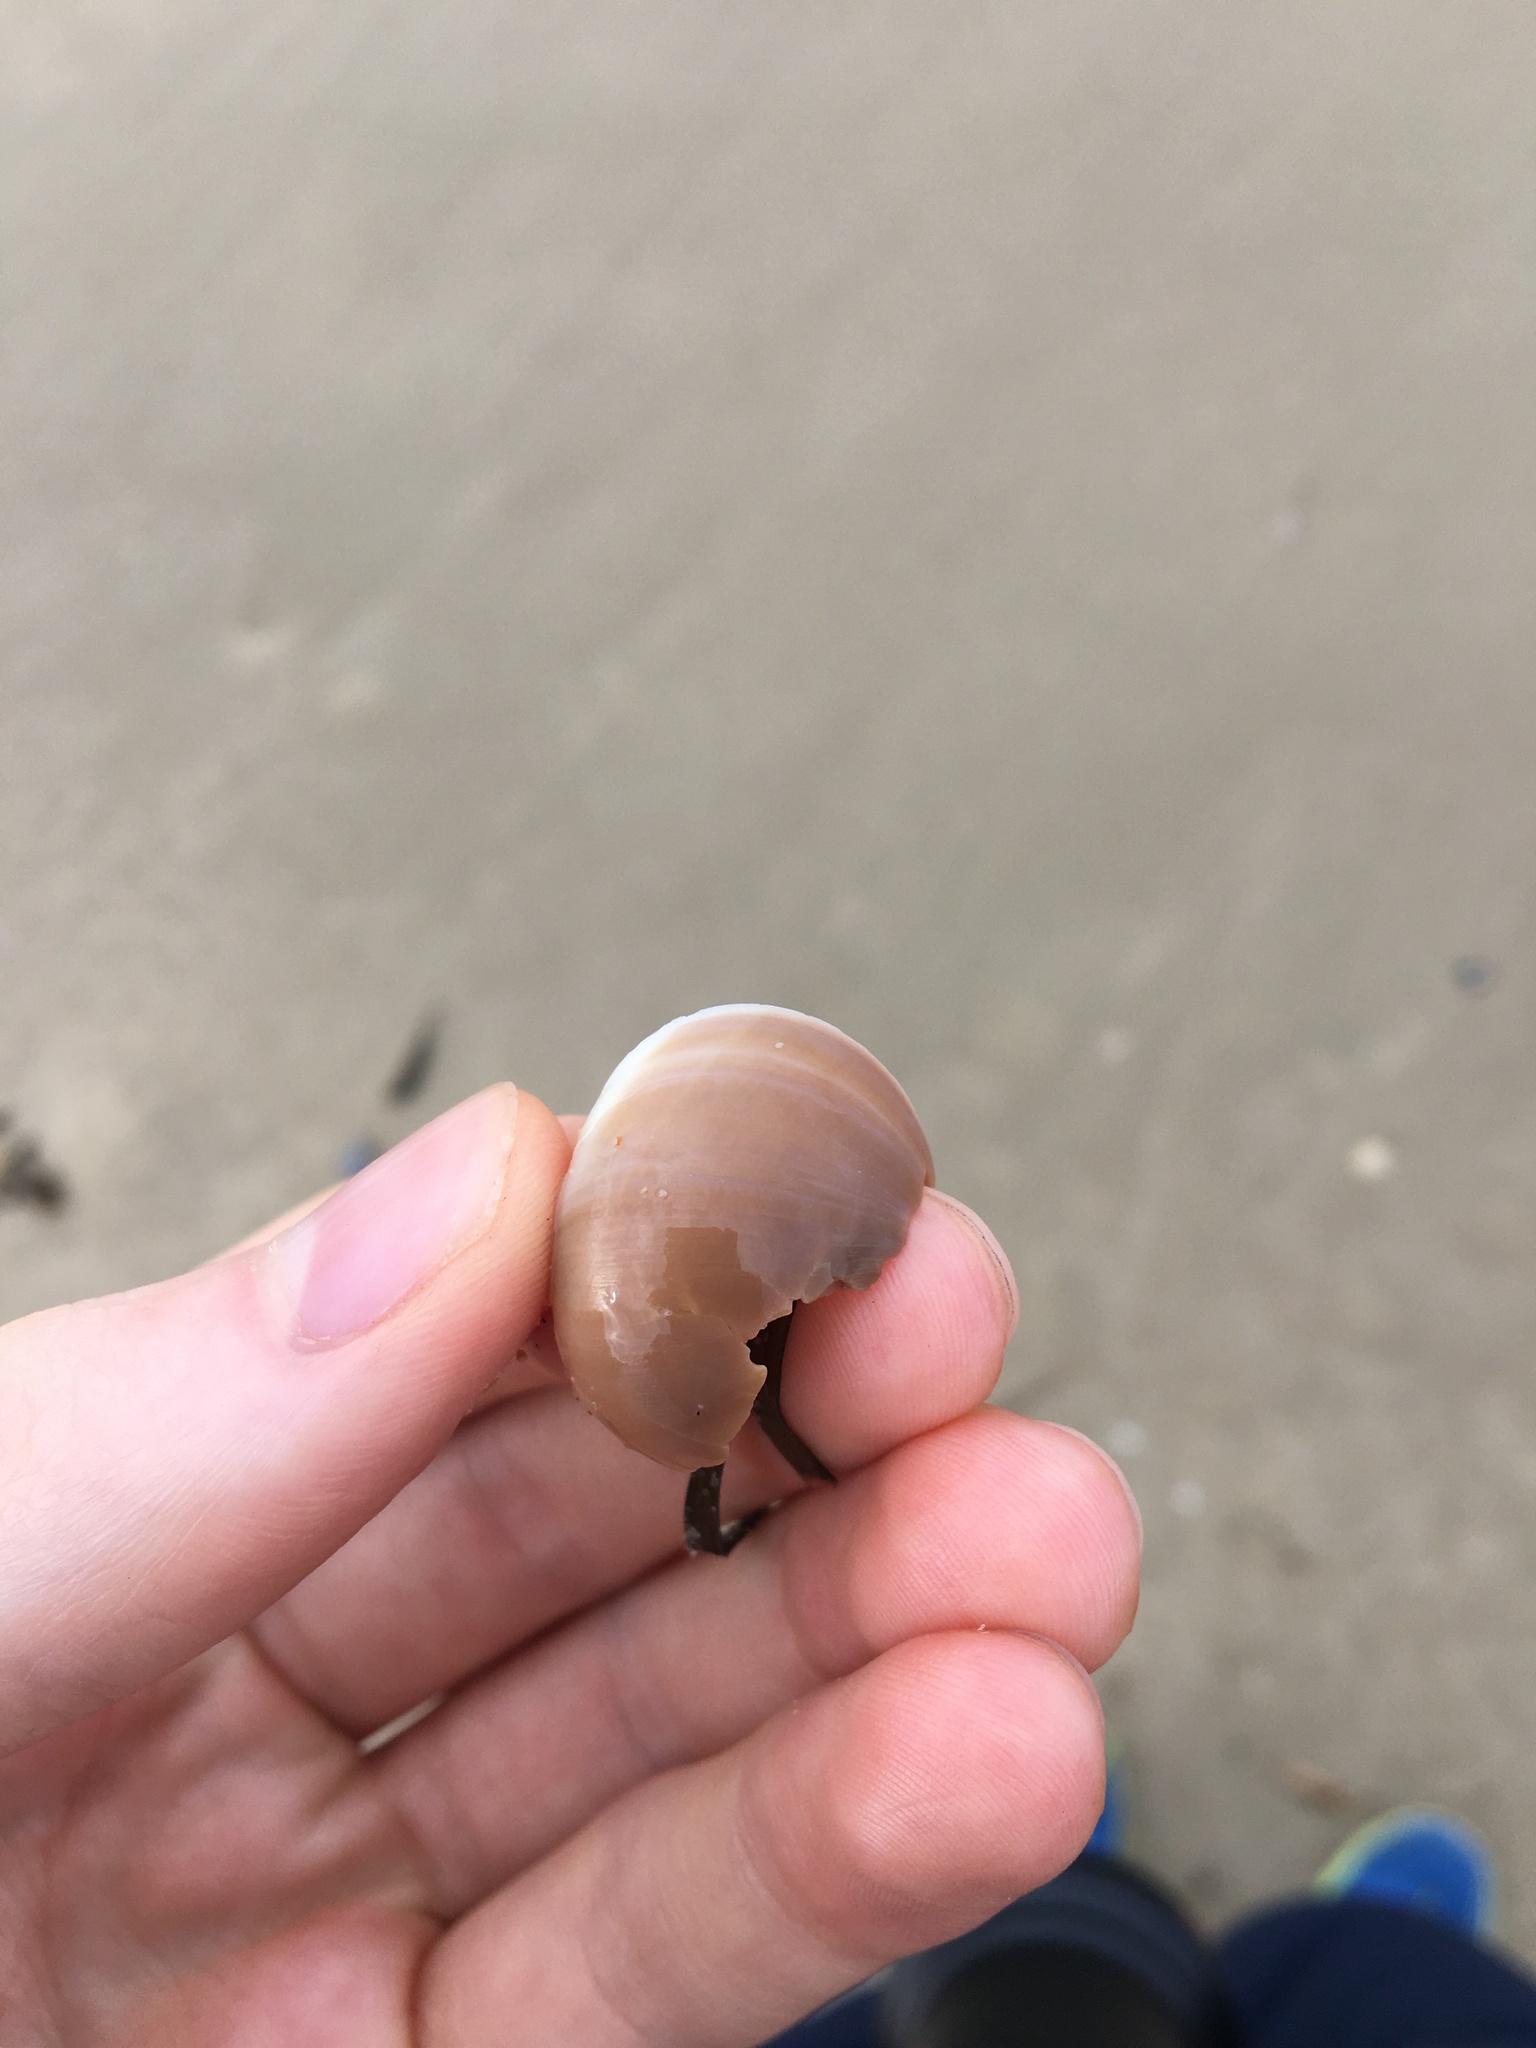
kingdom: Animalia
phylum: Mollusca
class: Gastropoda
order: Littorinimorpha
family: Naticidae
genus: Neverita
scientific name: Neverita didyma
